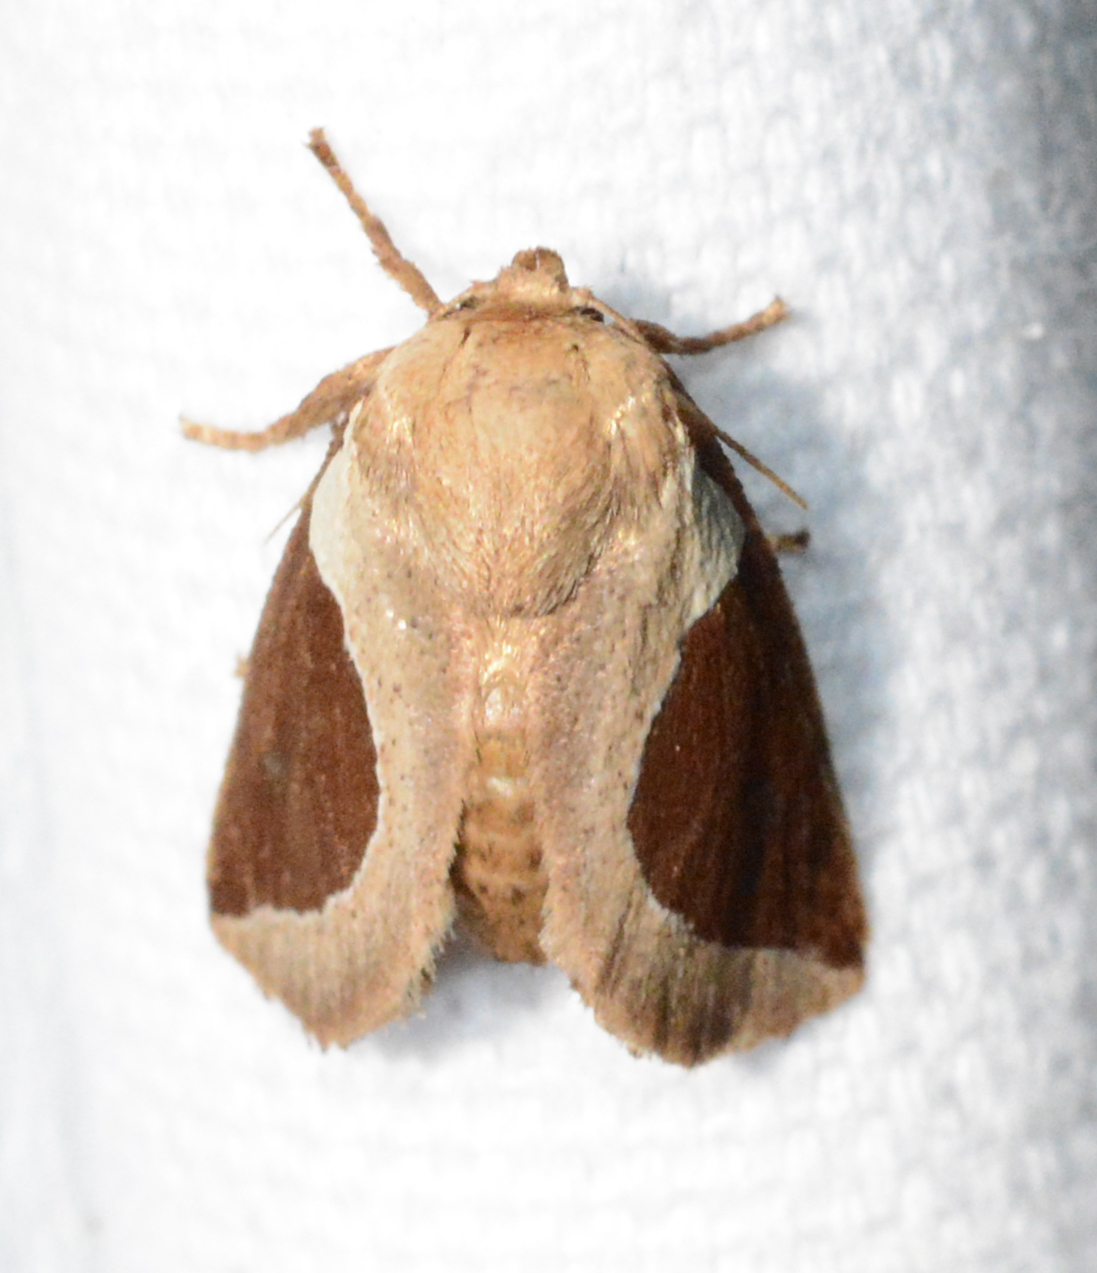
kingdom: Animalia
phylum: Arthropoda
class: Insecta
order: Lepidoptera
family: Limacodidae
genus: Prolimacodes
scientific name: Prolimacodes badia
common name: Skiff moth
